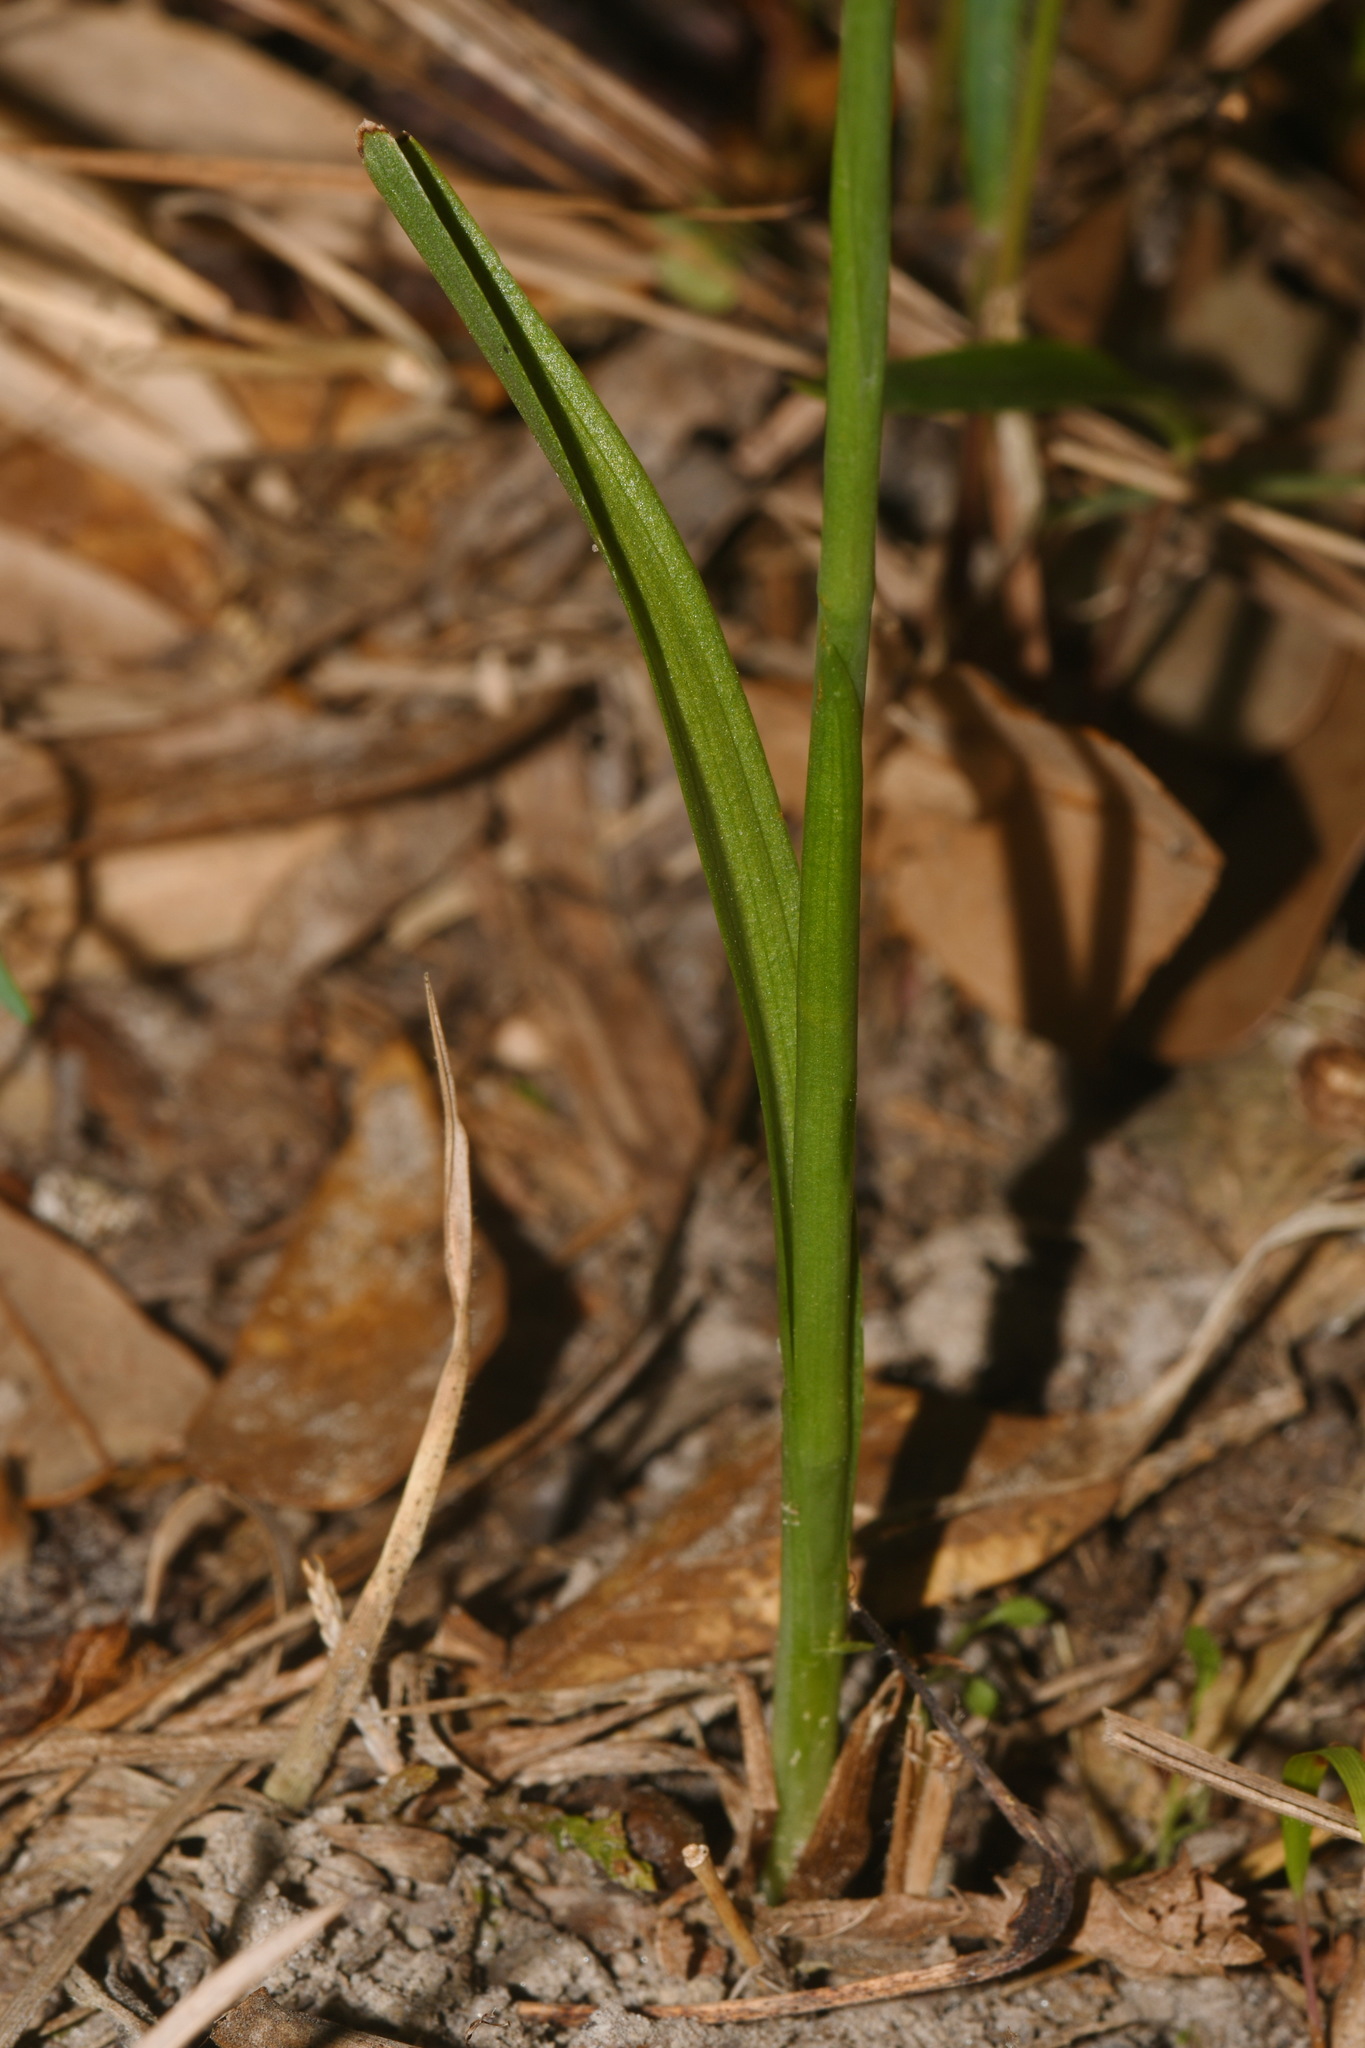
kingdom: Plantae
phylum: Tracheophyta
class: Liliopsida
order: Asparagales
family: Orchidaceae
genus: Spiranthes
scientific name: Spiranthes praecox
